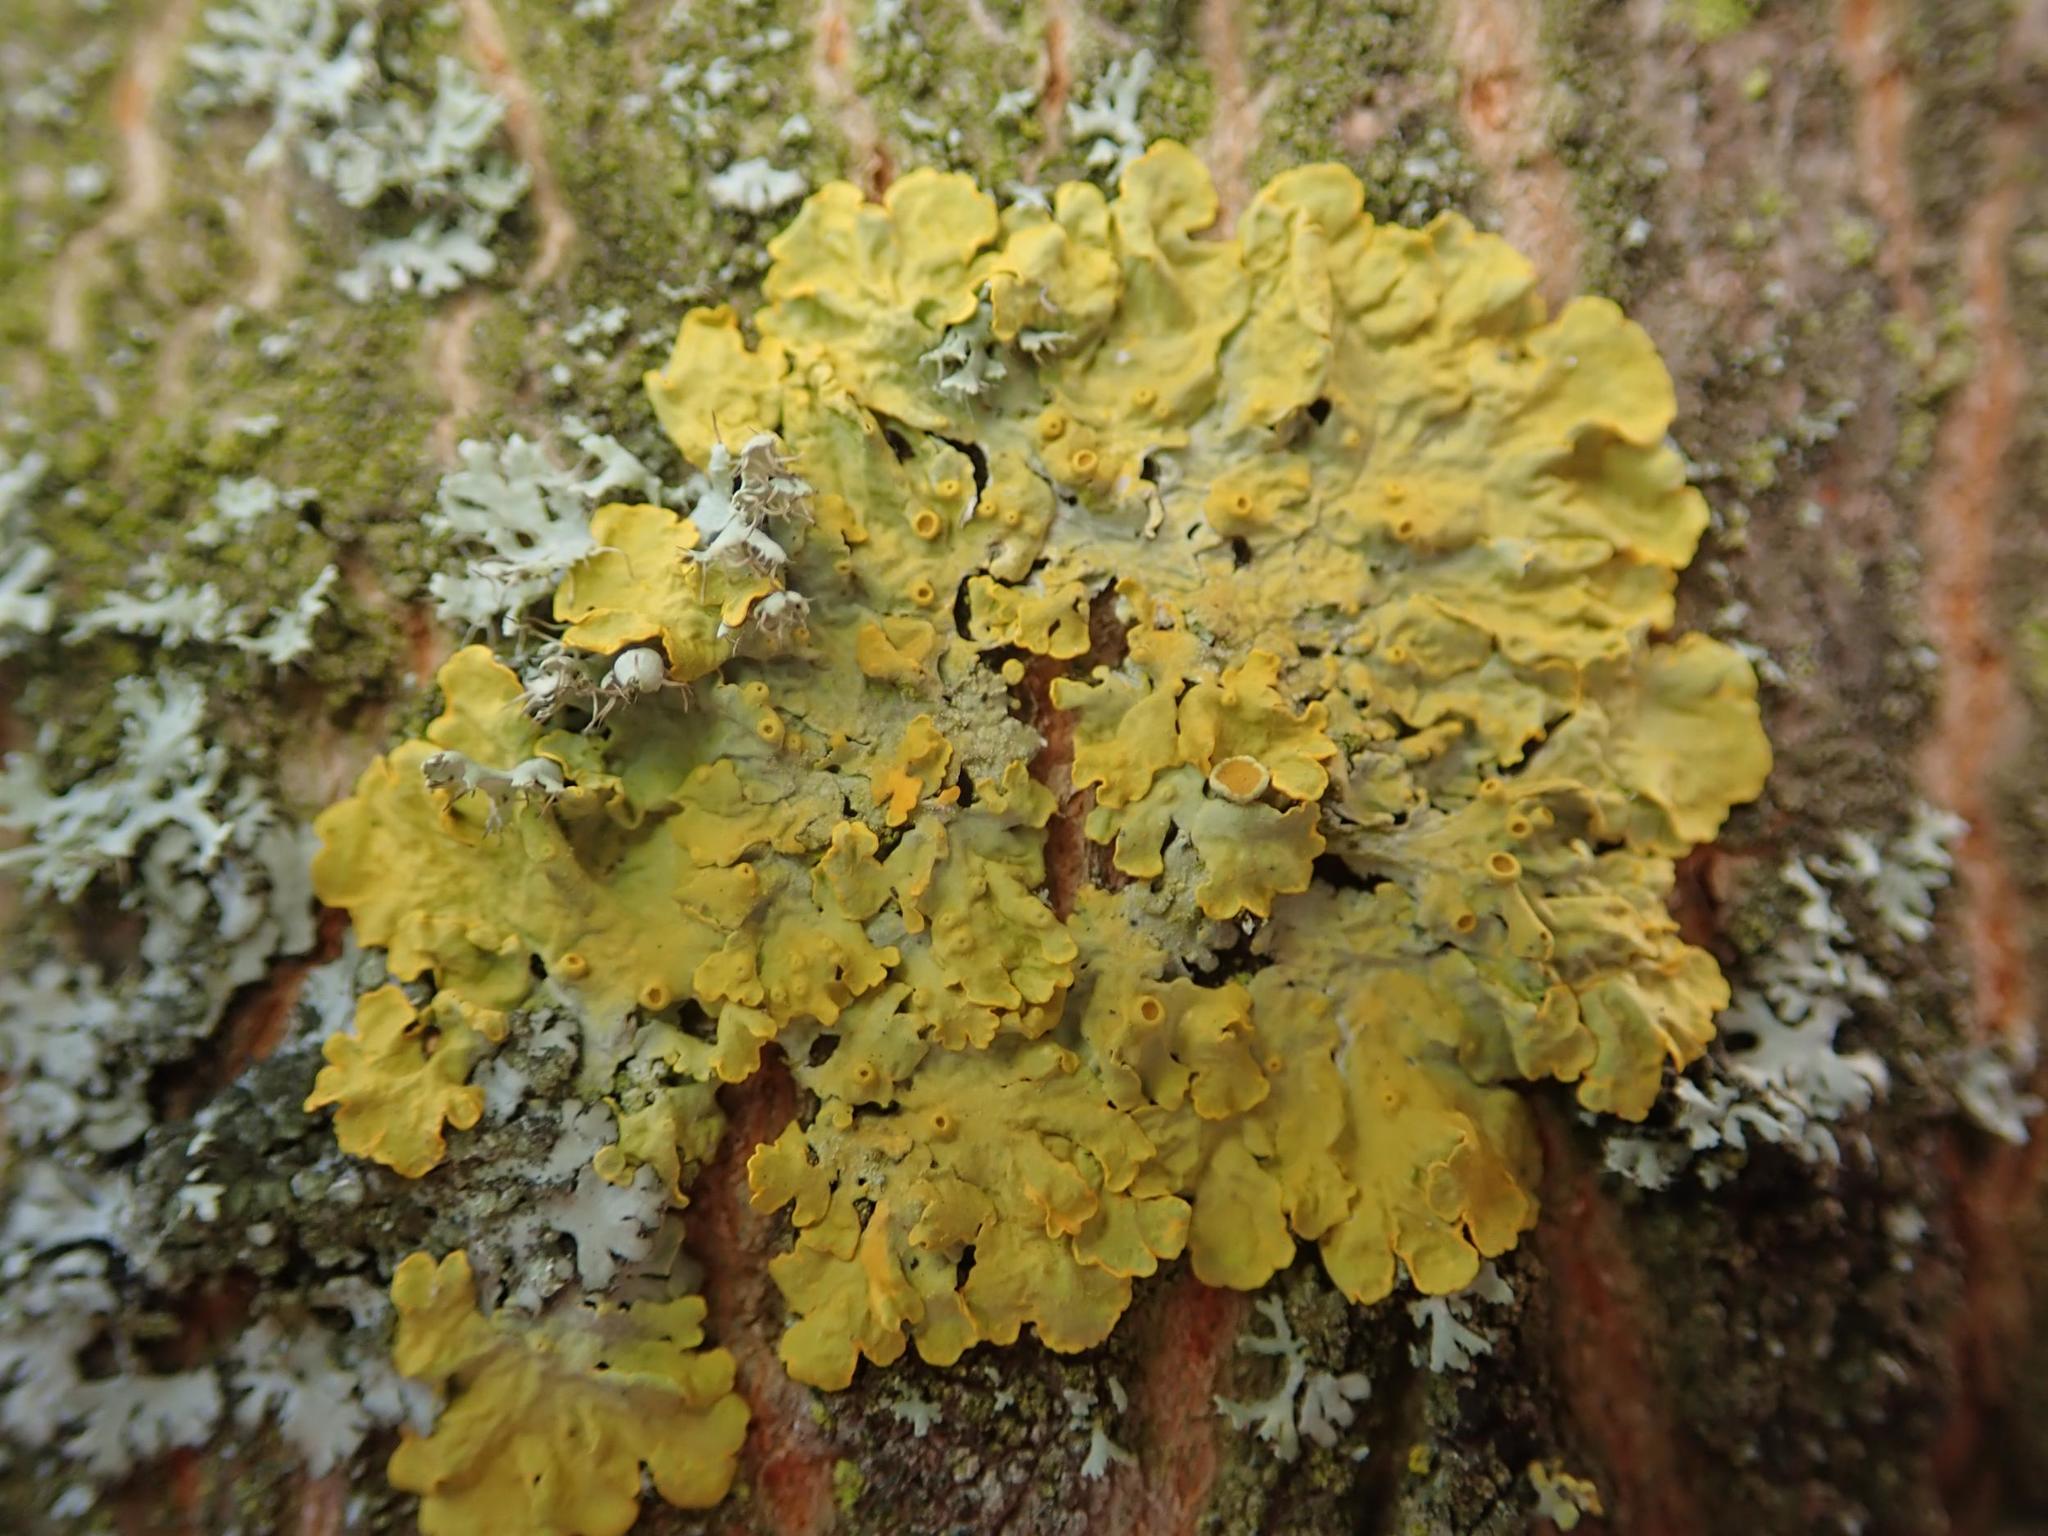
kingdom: Fungi
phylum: Ascomycota
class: Lecanoromycetes
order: Teloschistales
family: Teloschistaceae
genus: Xanthoria
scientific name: Xanthoria parietina
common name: Common orange lichen
